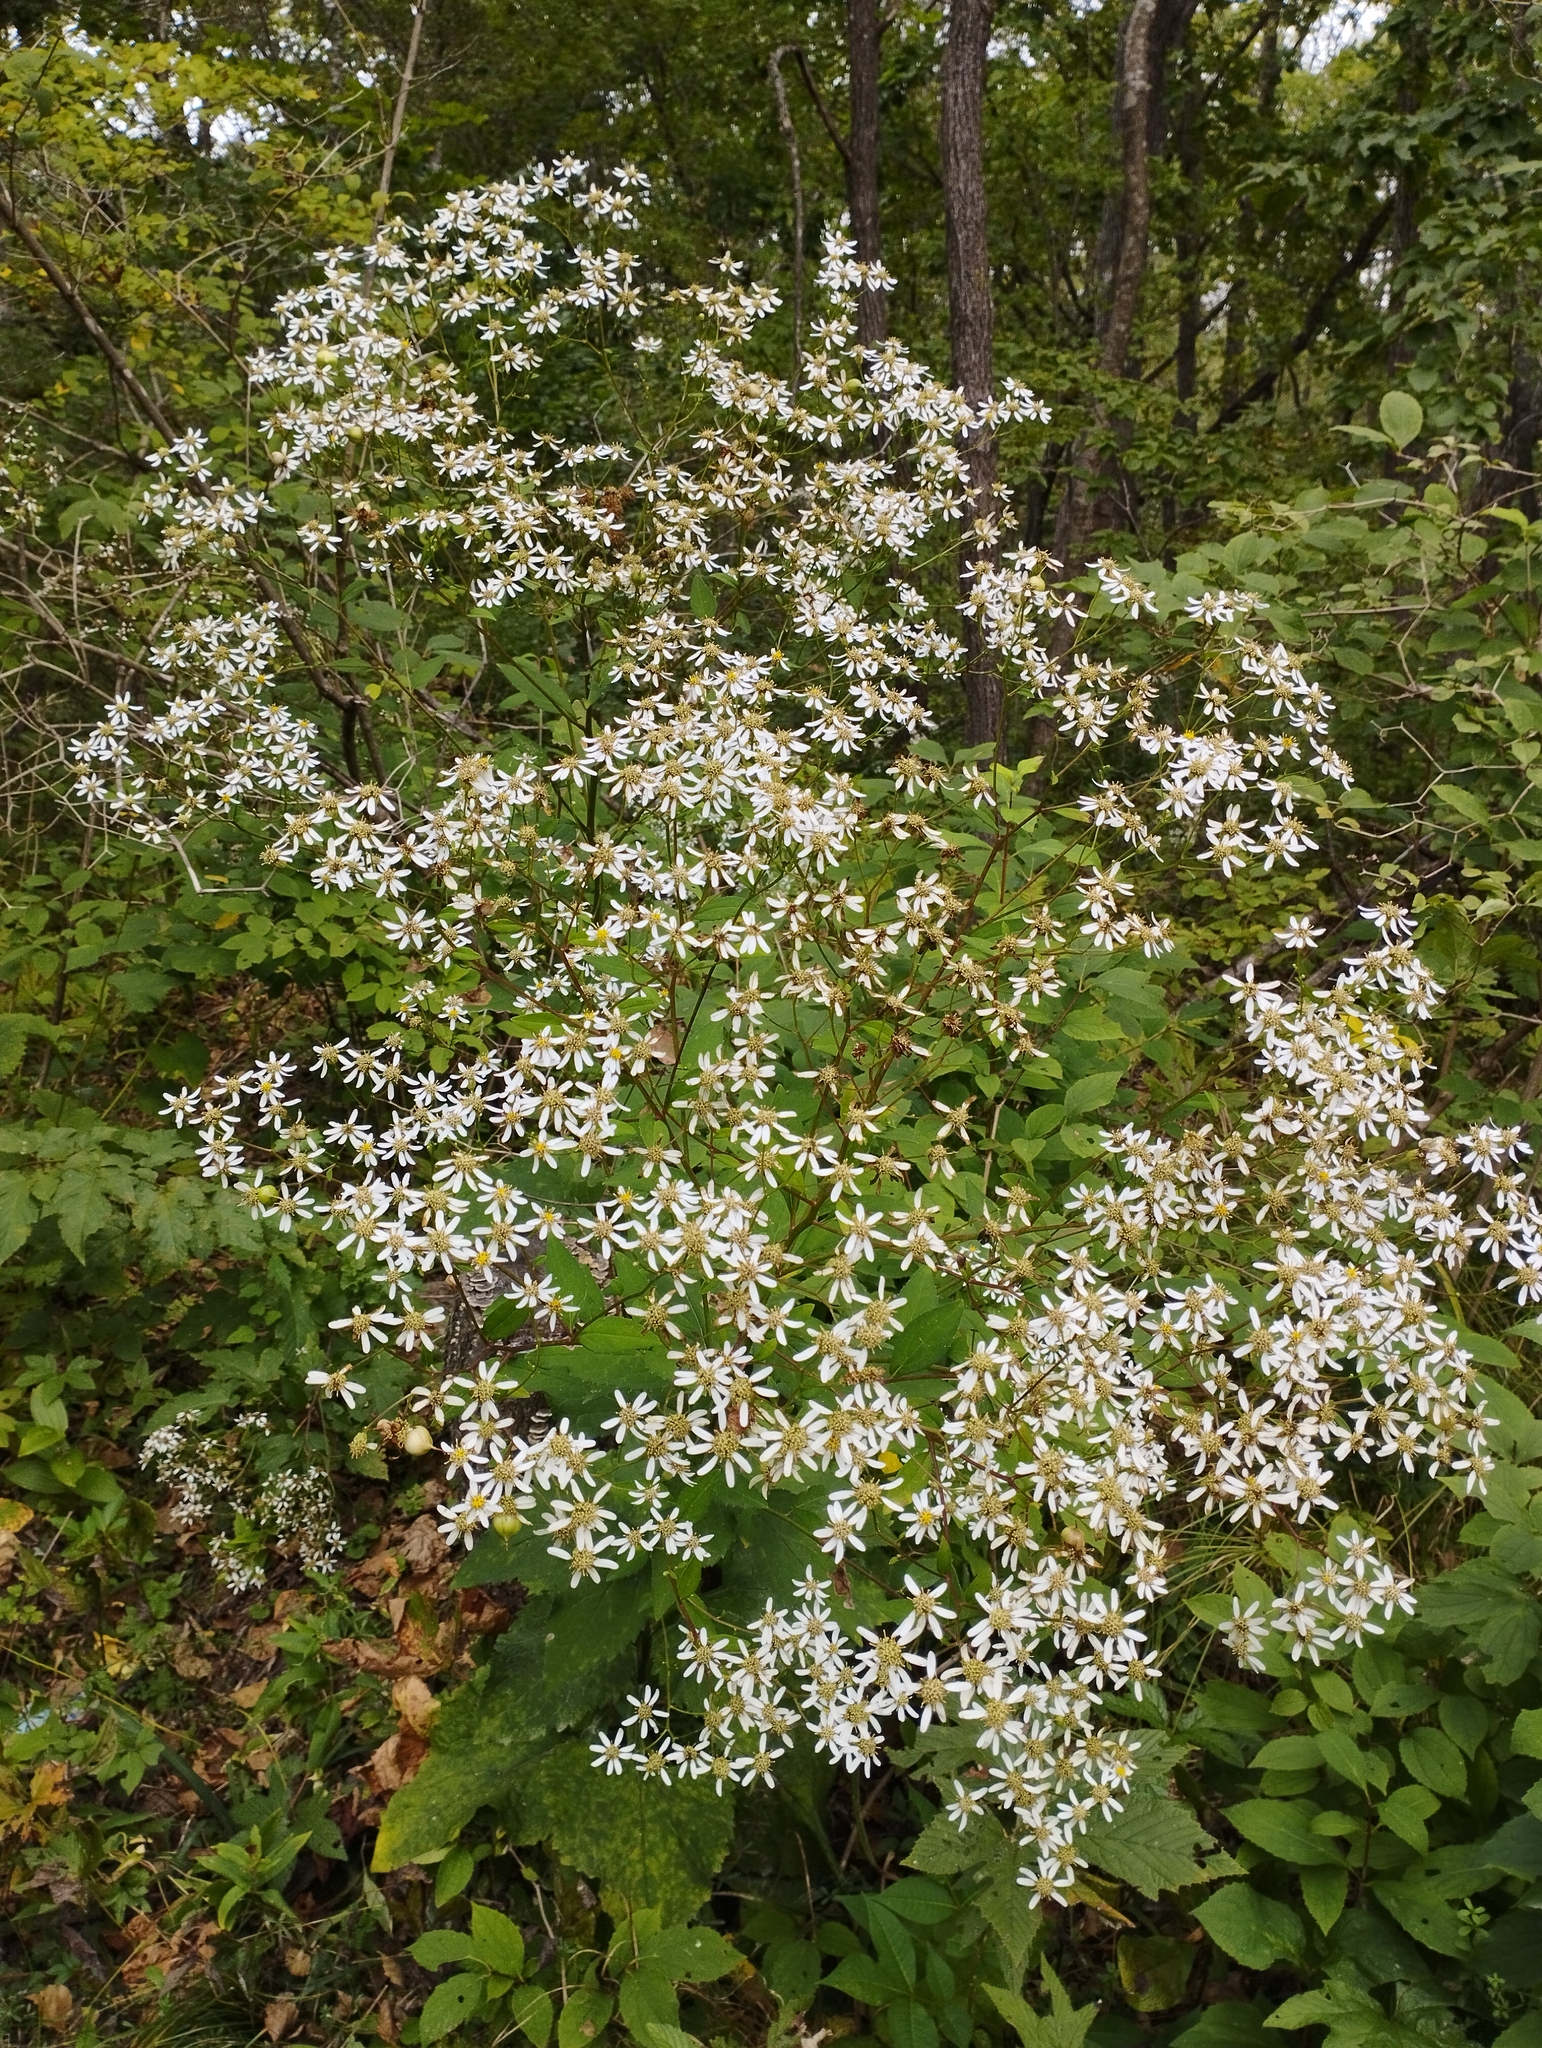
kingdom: Plantae
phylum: Tracheophyta
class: Magnoliopsida
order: Asterales
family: Asteraceae
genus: Aster
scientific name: Aster scaber
